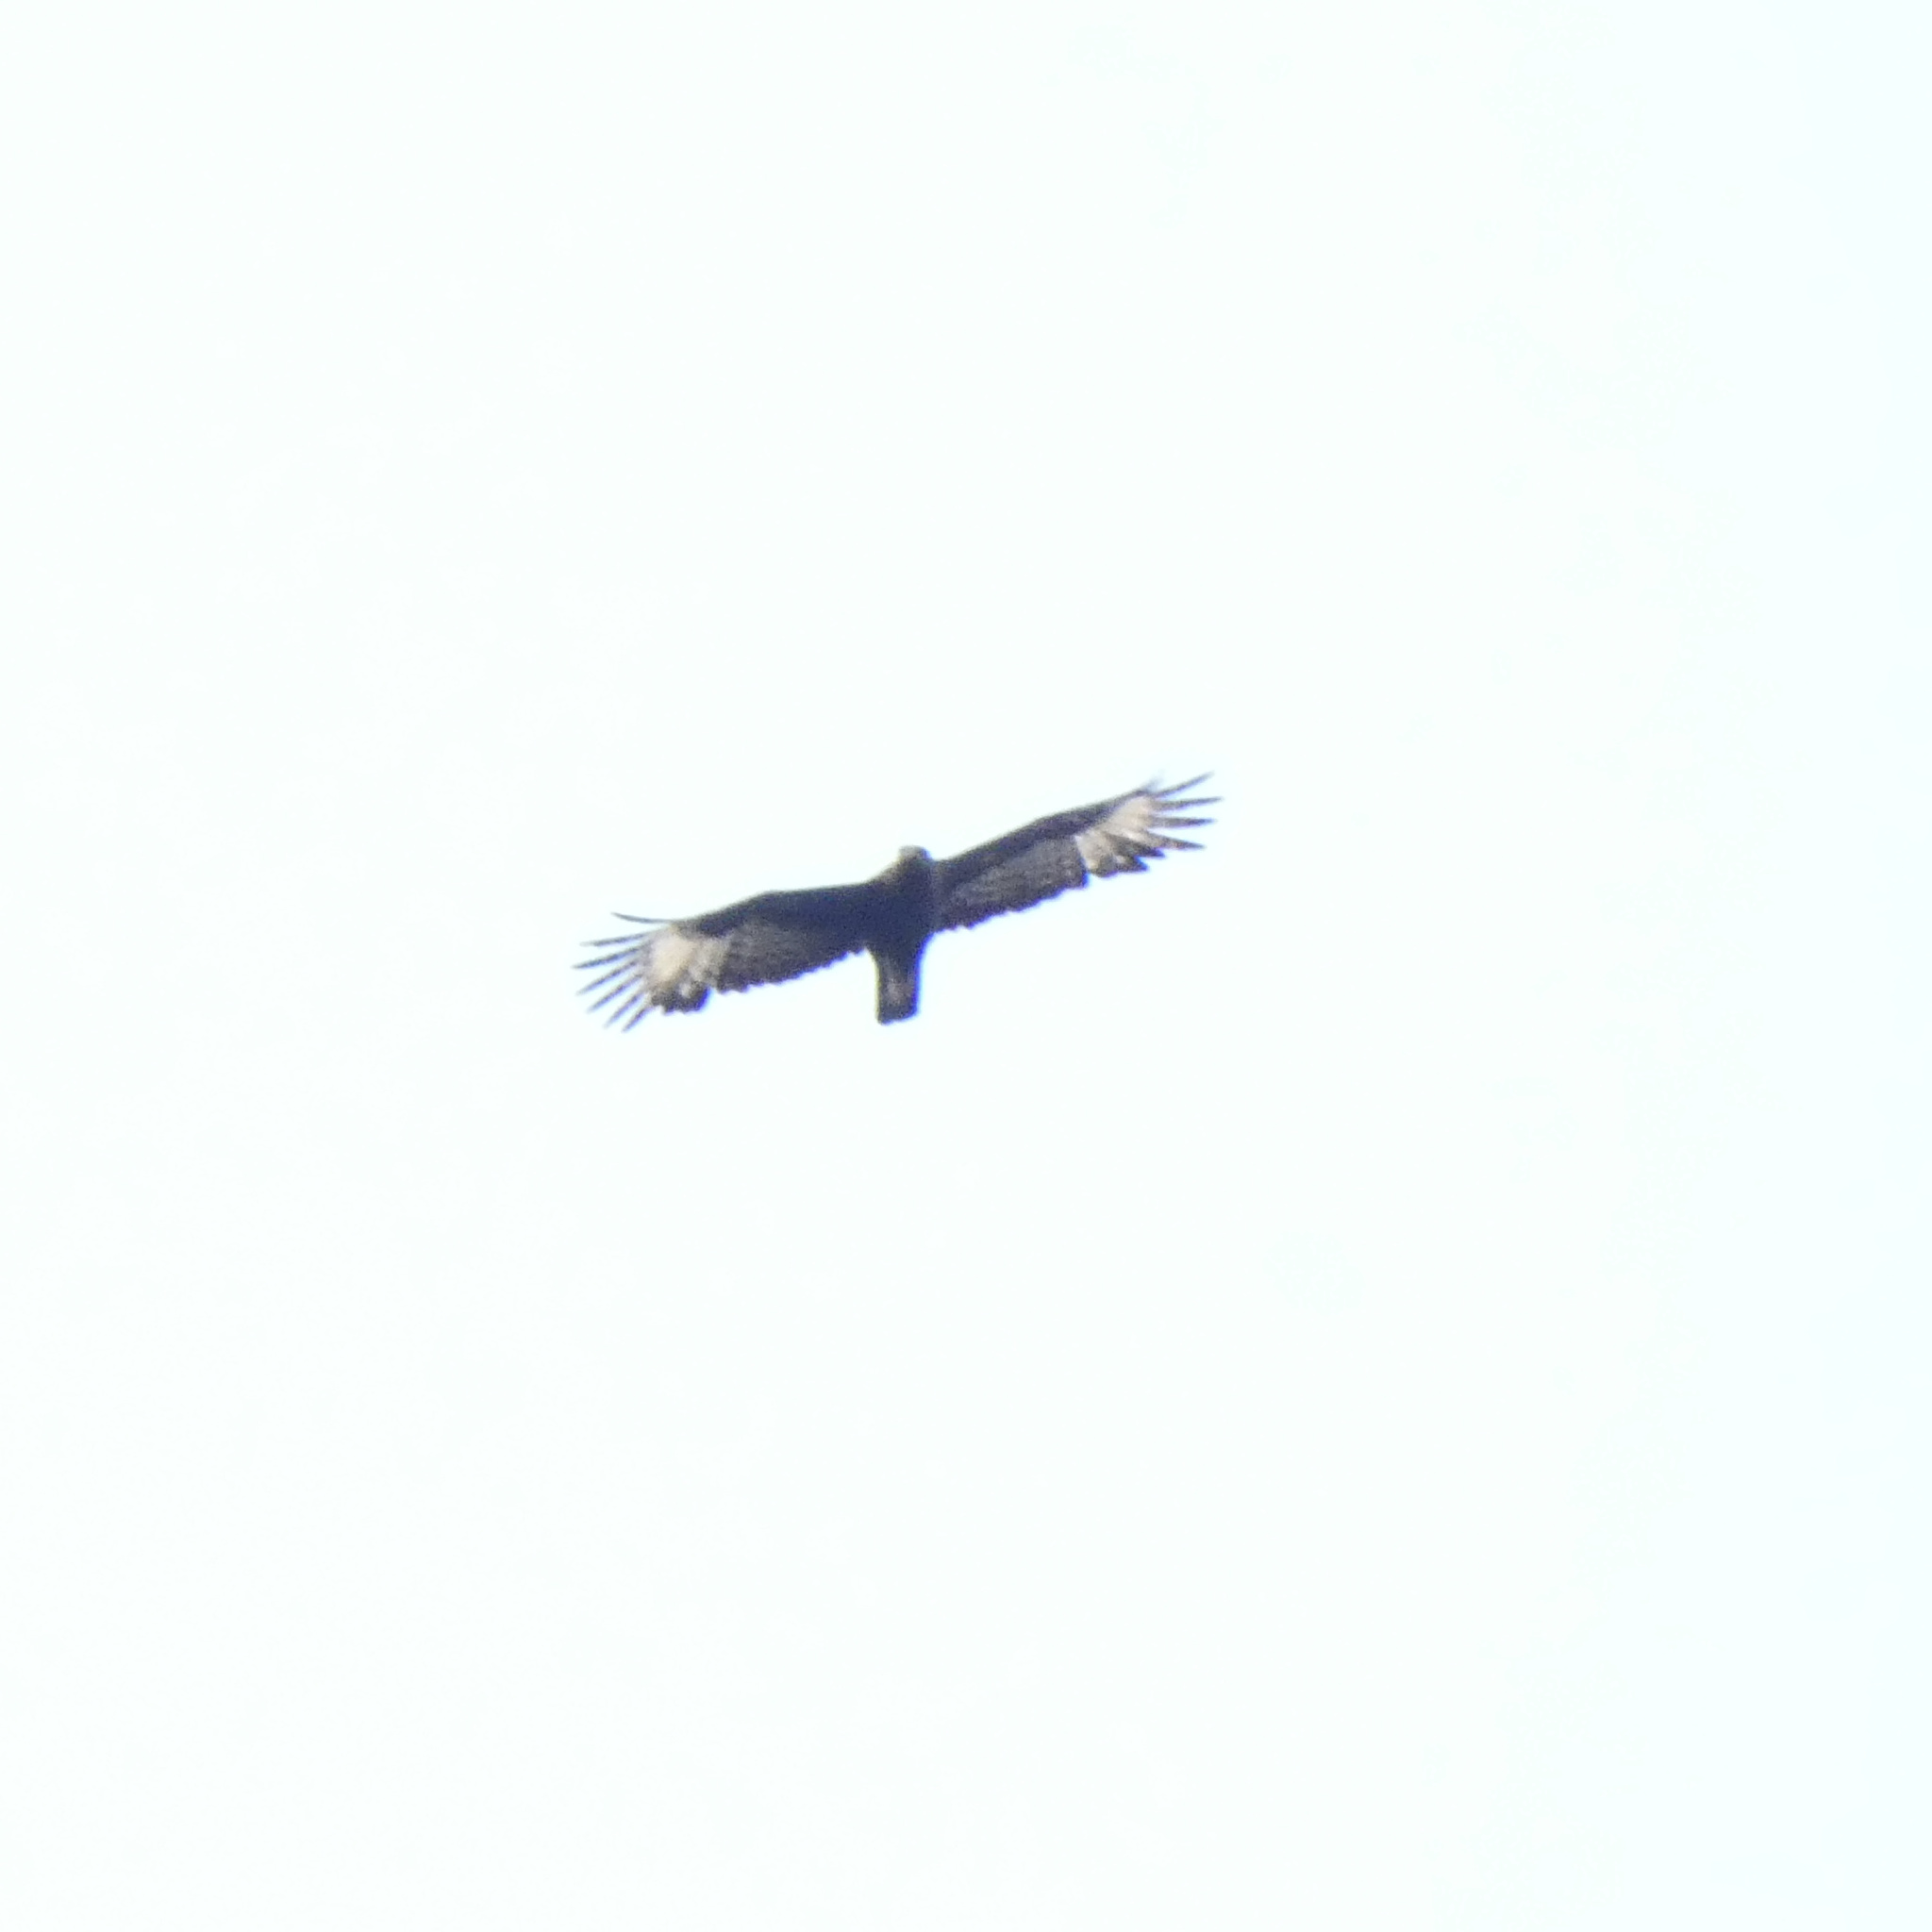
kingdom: Animalia
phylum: Chordata
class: Aves
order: Accipitriformes
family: Accipitridae
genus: Lophaetus
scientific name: Lophaetus occipitalis
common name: Long-crested eagle
